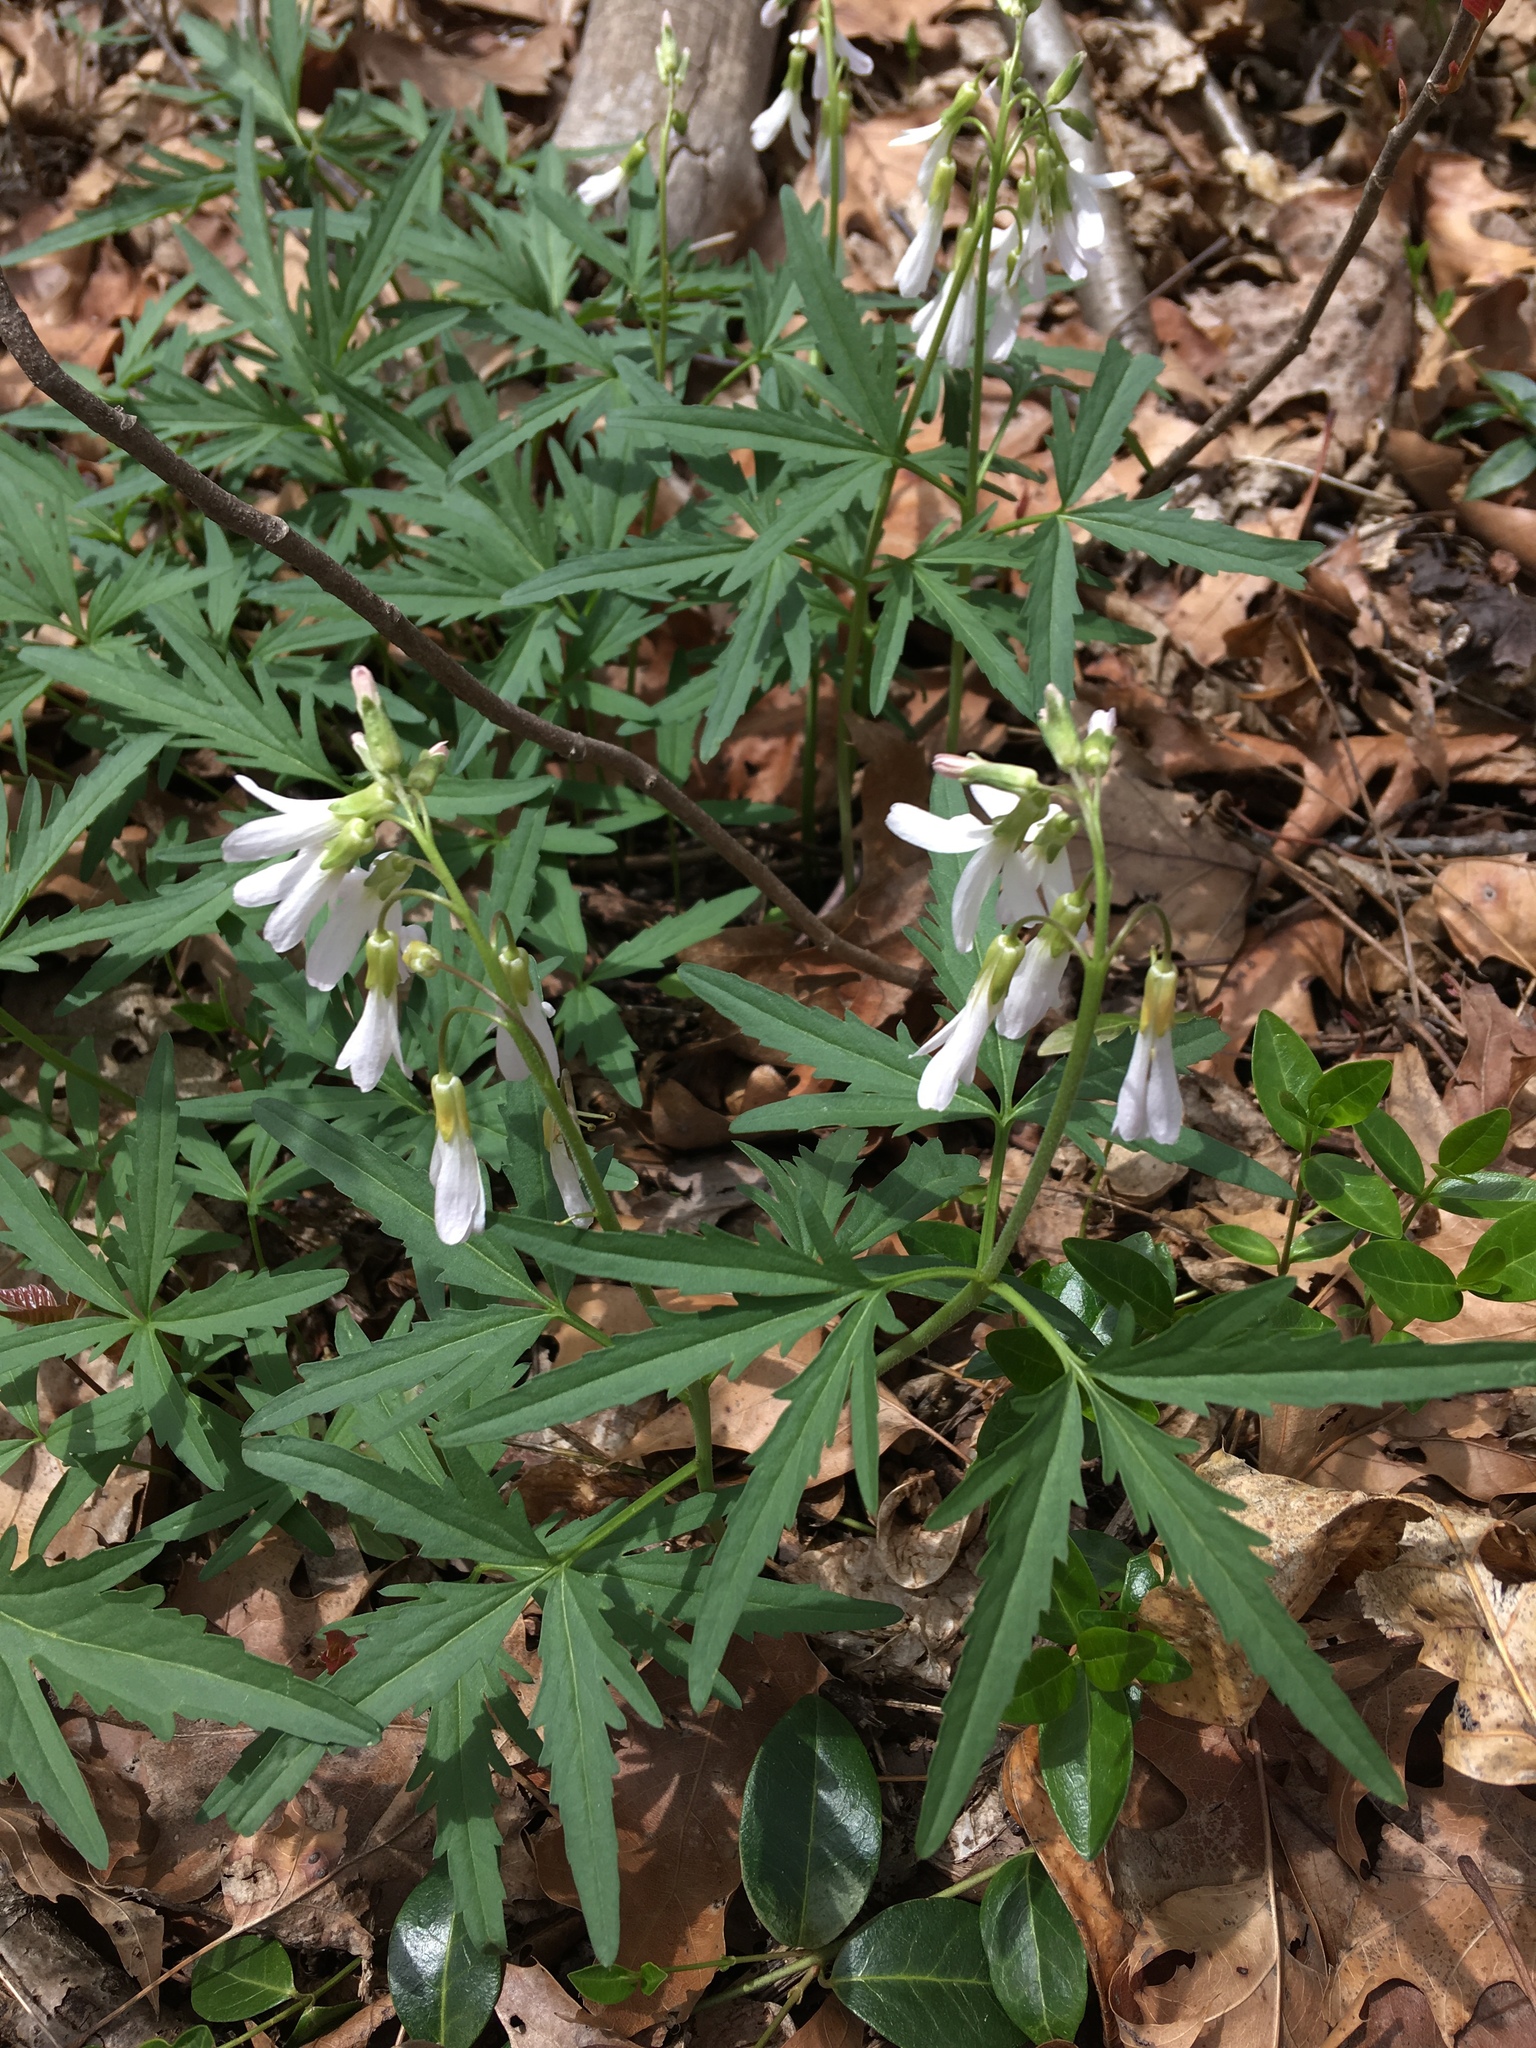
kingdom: Plantae
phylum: Tracheophyta
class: Magnoliopsida
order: Brassicales
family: Brassicaceae
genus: Cardamine
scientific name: Cardamine concatenata
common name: Cut-leaf toothcup
